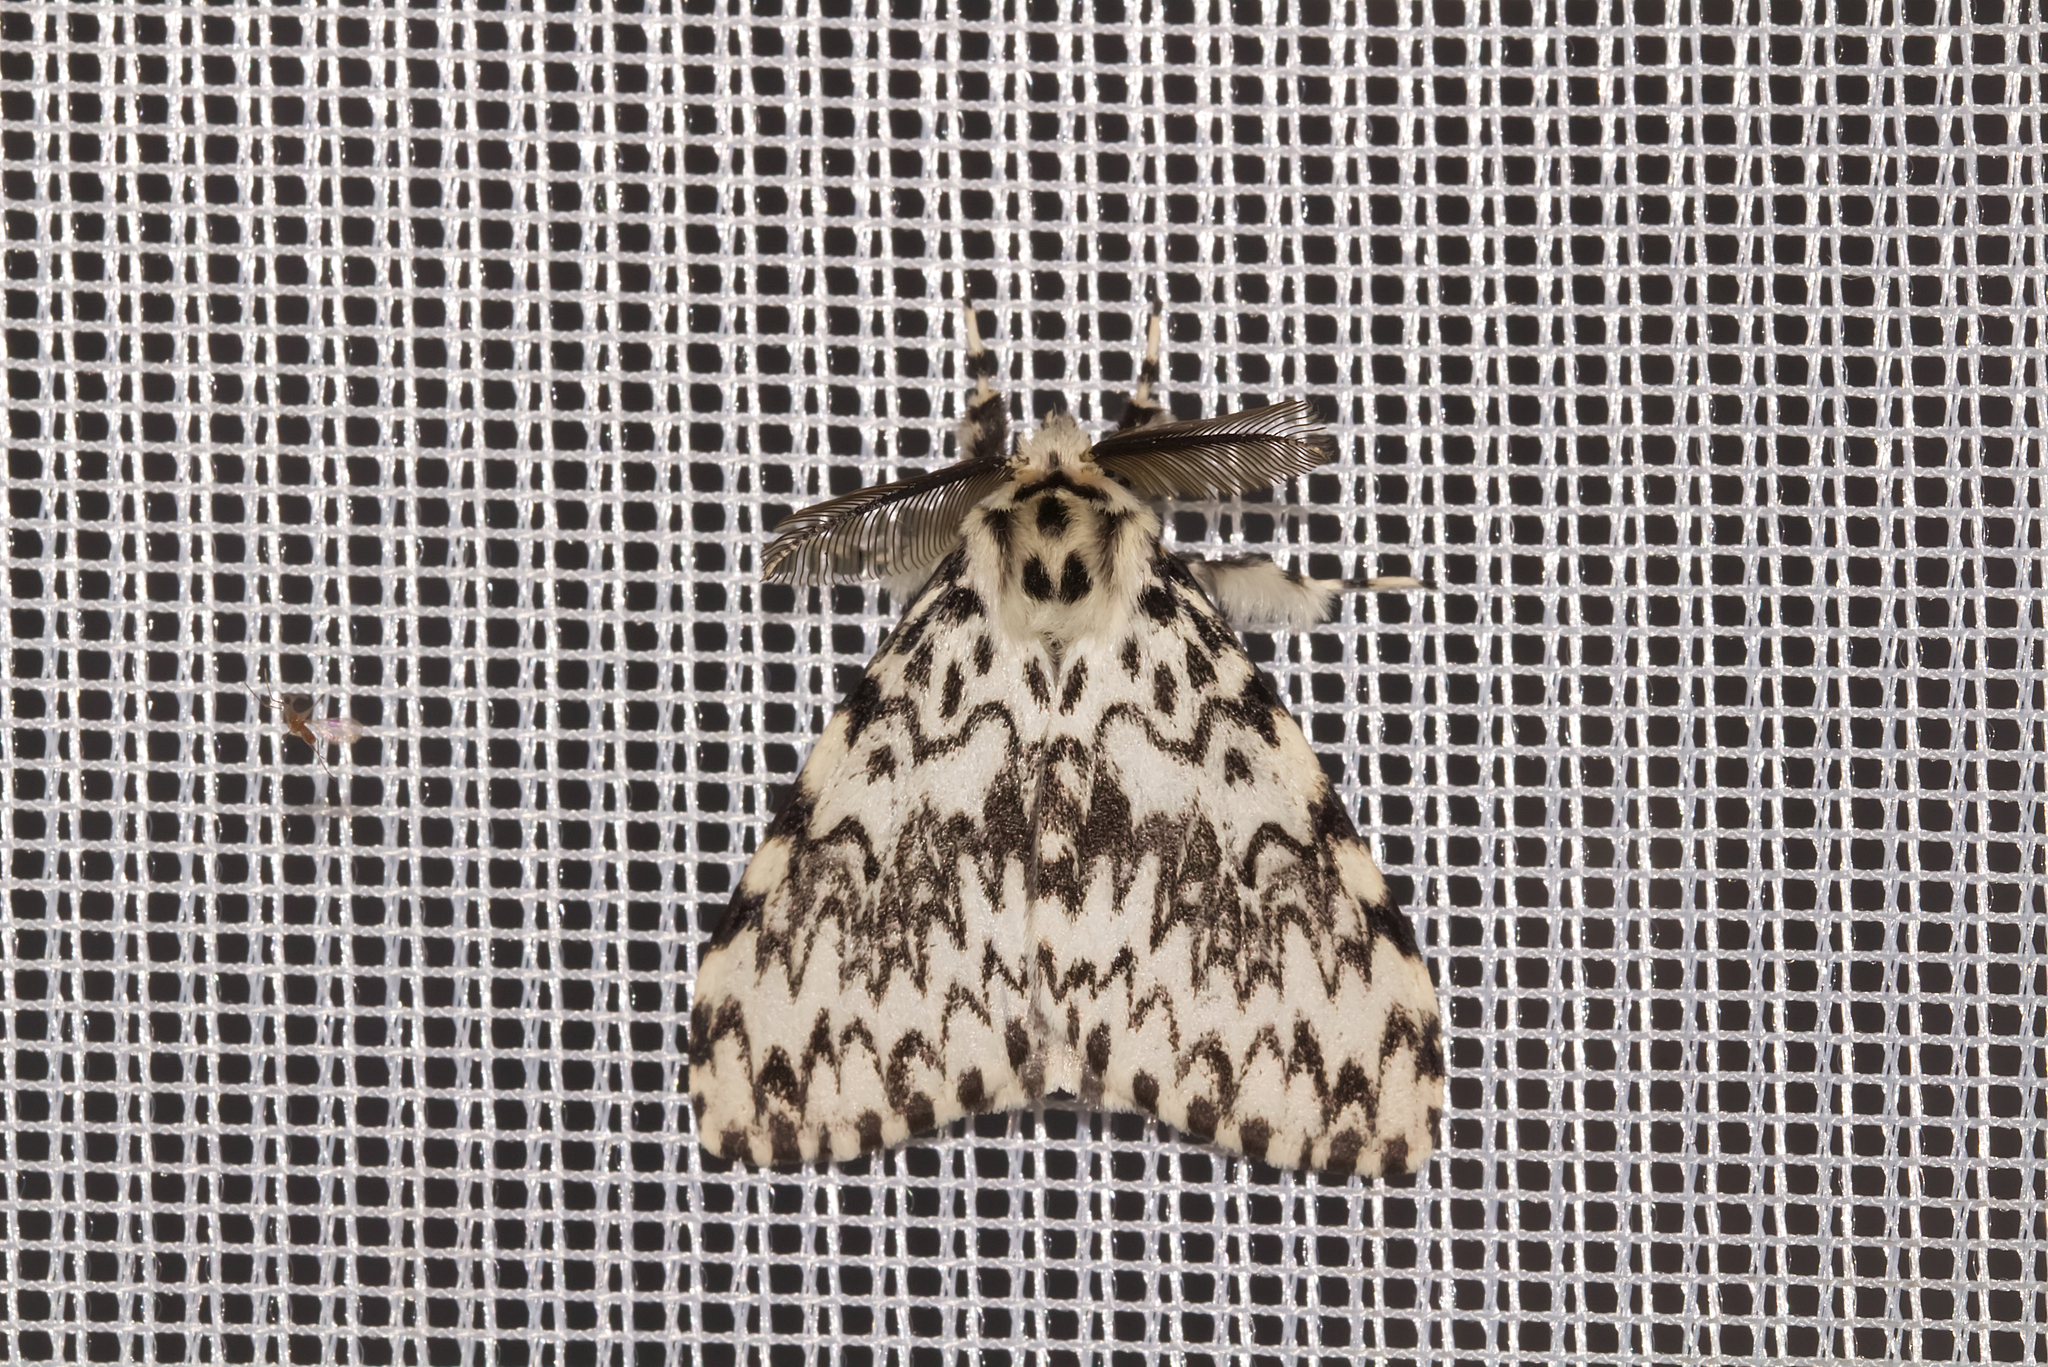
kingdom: Animalia
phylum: Arthropoda
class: Insecta
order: Lepidoptera
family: Erebidae
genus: Lymantria
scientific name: Lymantria monacha
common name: Black arches
